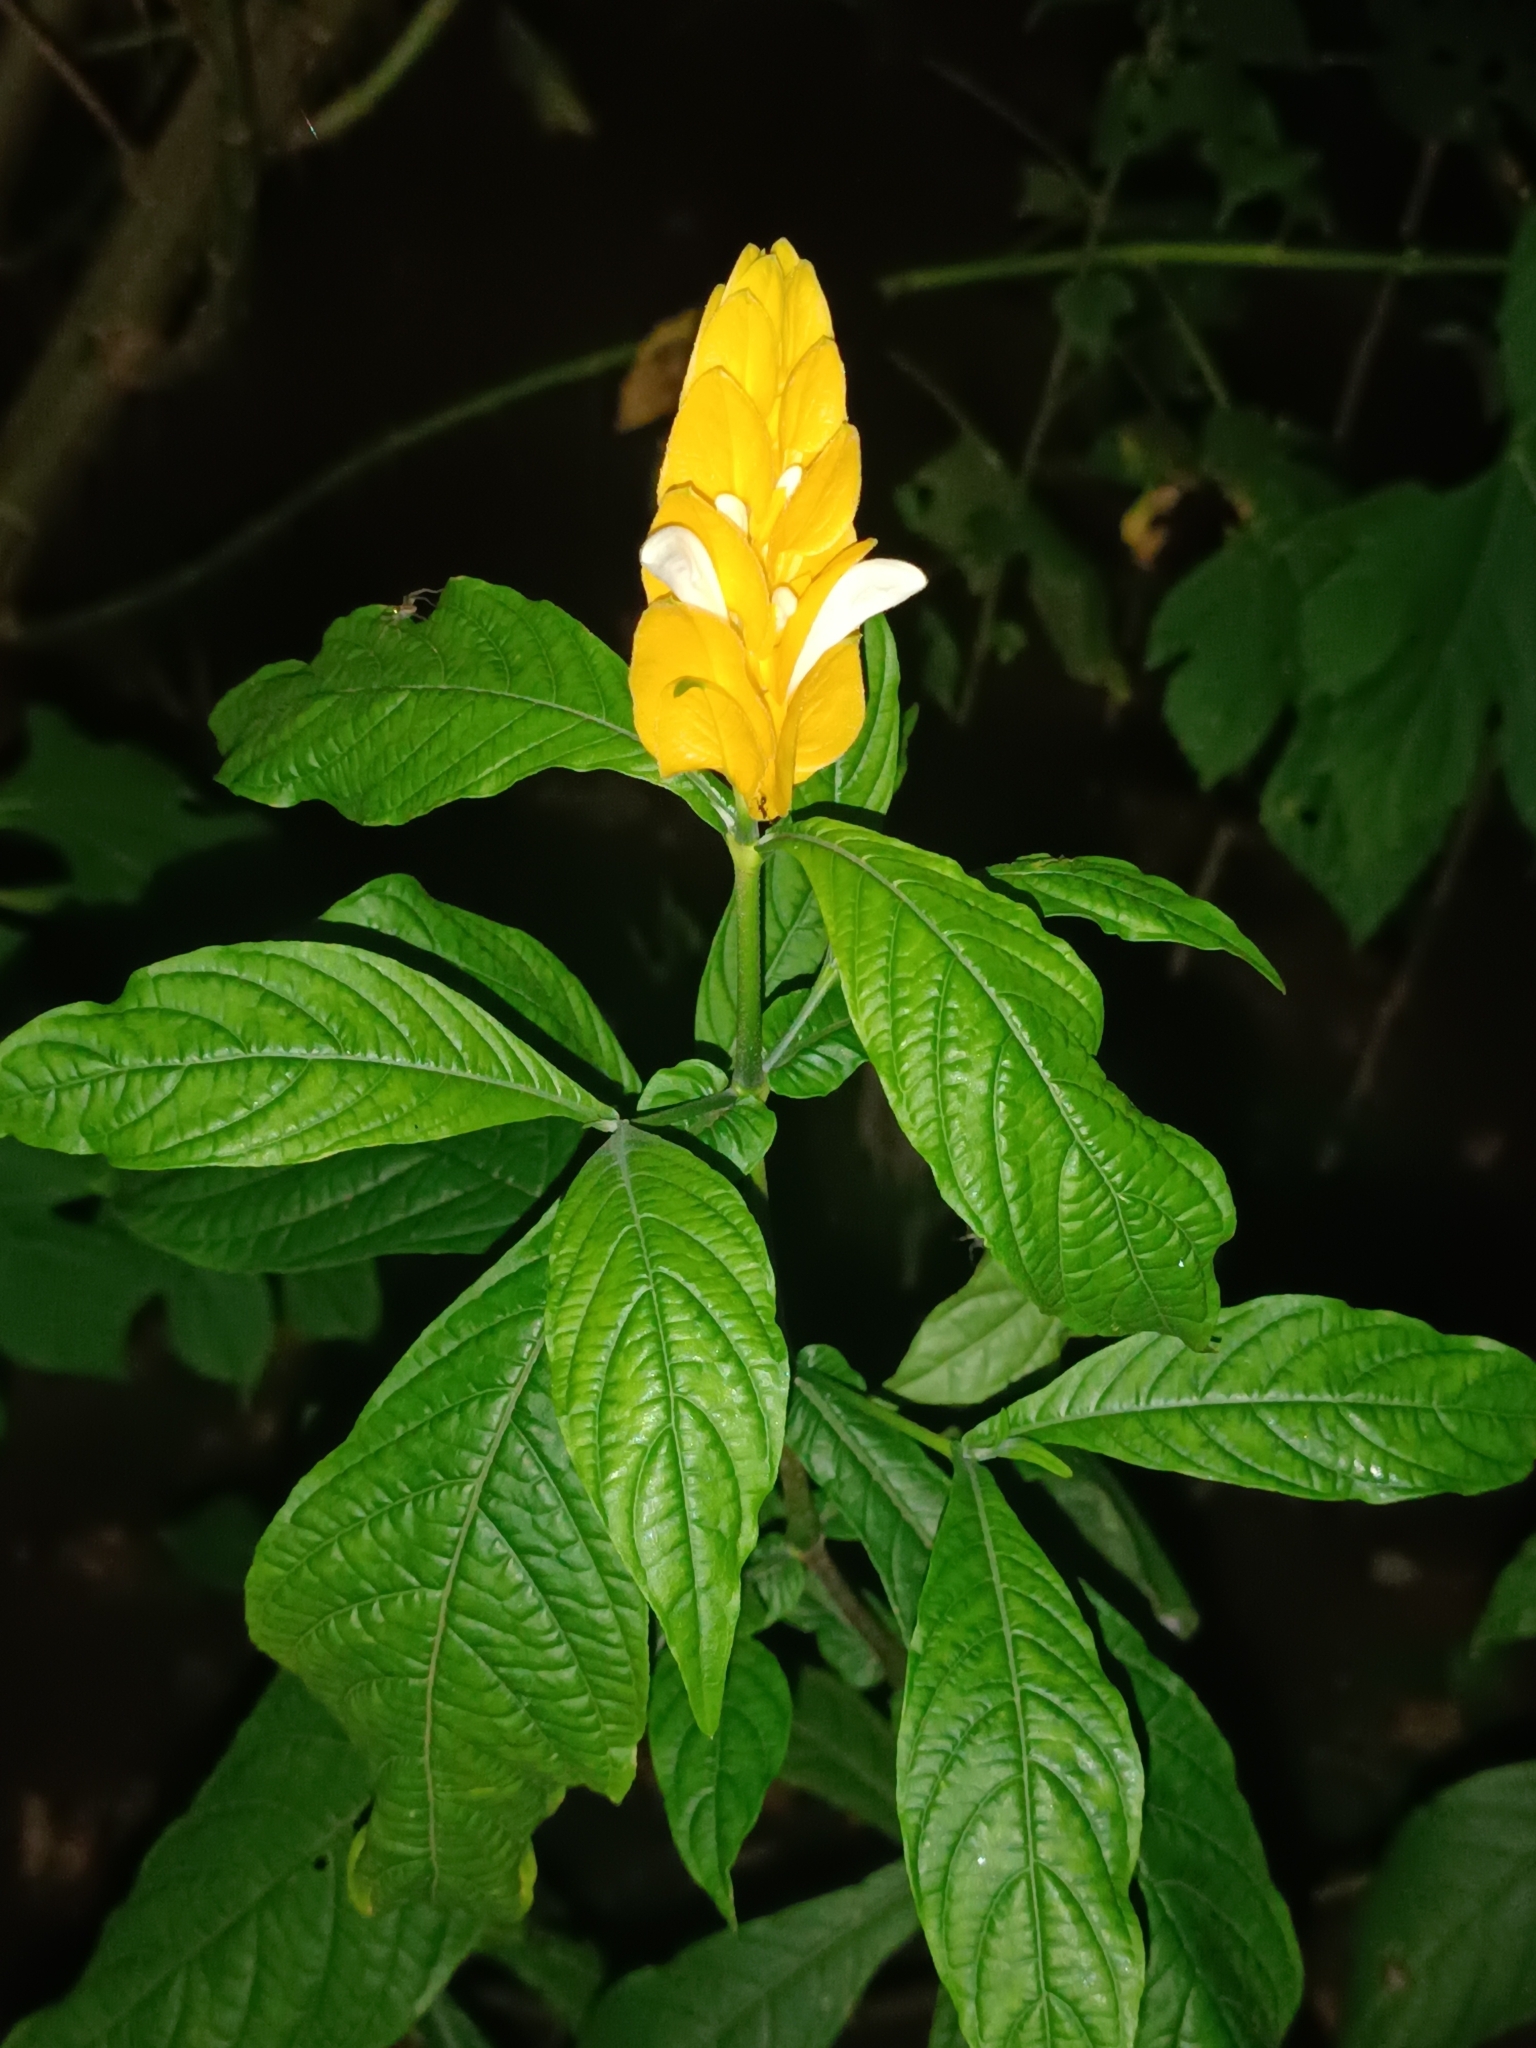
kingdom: Plantae
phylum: Tracheophyta
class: Magnoliopsida
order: Lamiales
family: Acanthaceae
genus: Pachystachys
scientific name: Pachystachys lutea
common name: Golden shrimp-plant
